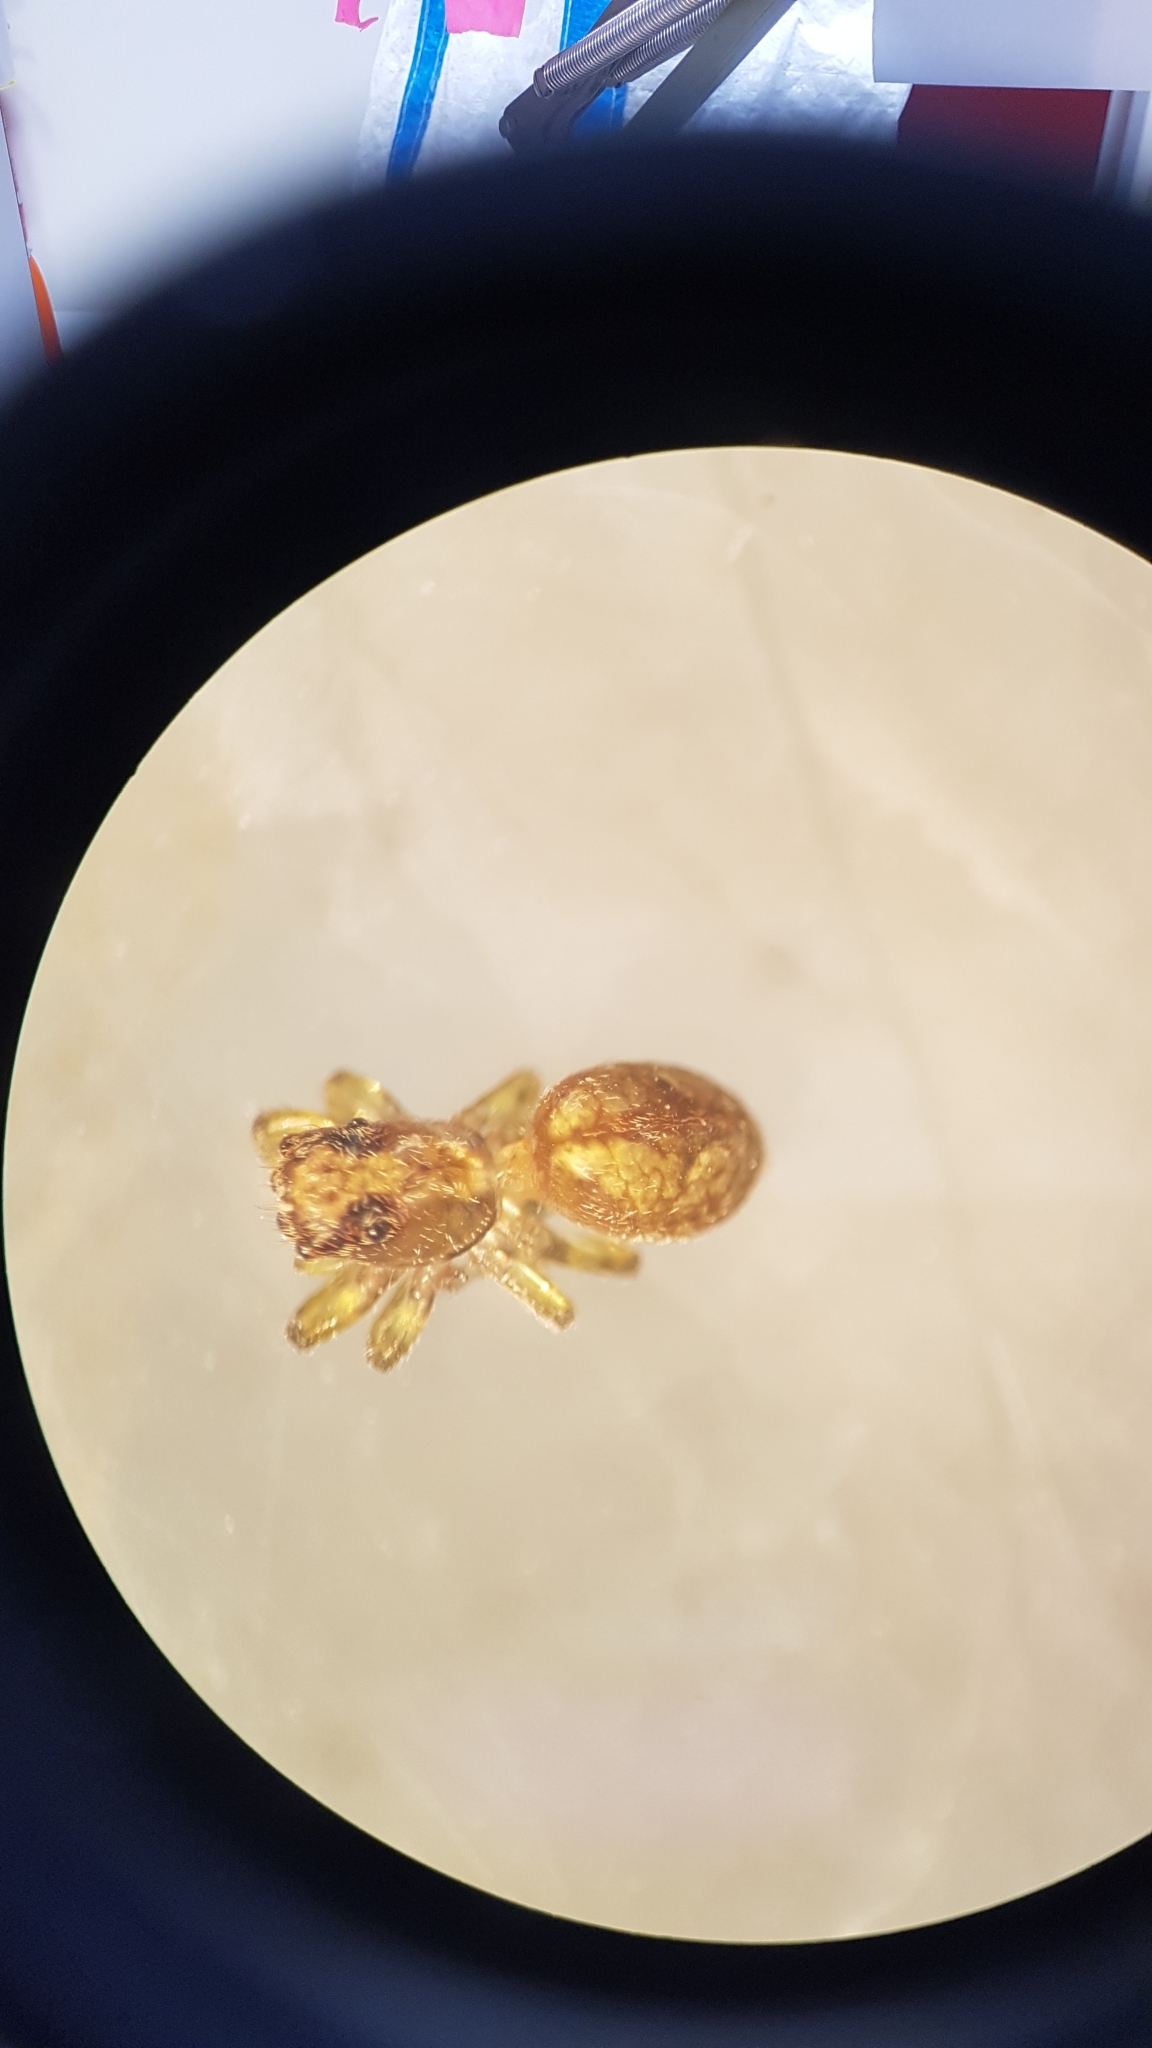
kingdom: Animalia
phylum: Arthropoda
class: Arachnida
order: Araneae
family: Salticidae
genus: Hinewaia
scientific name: Hinewaia embolica
